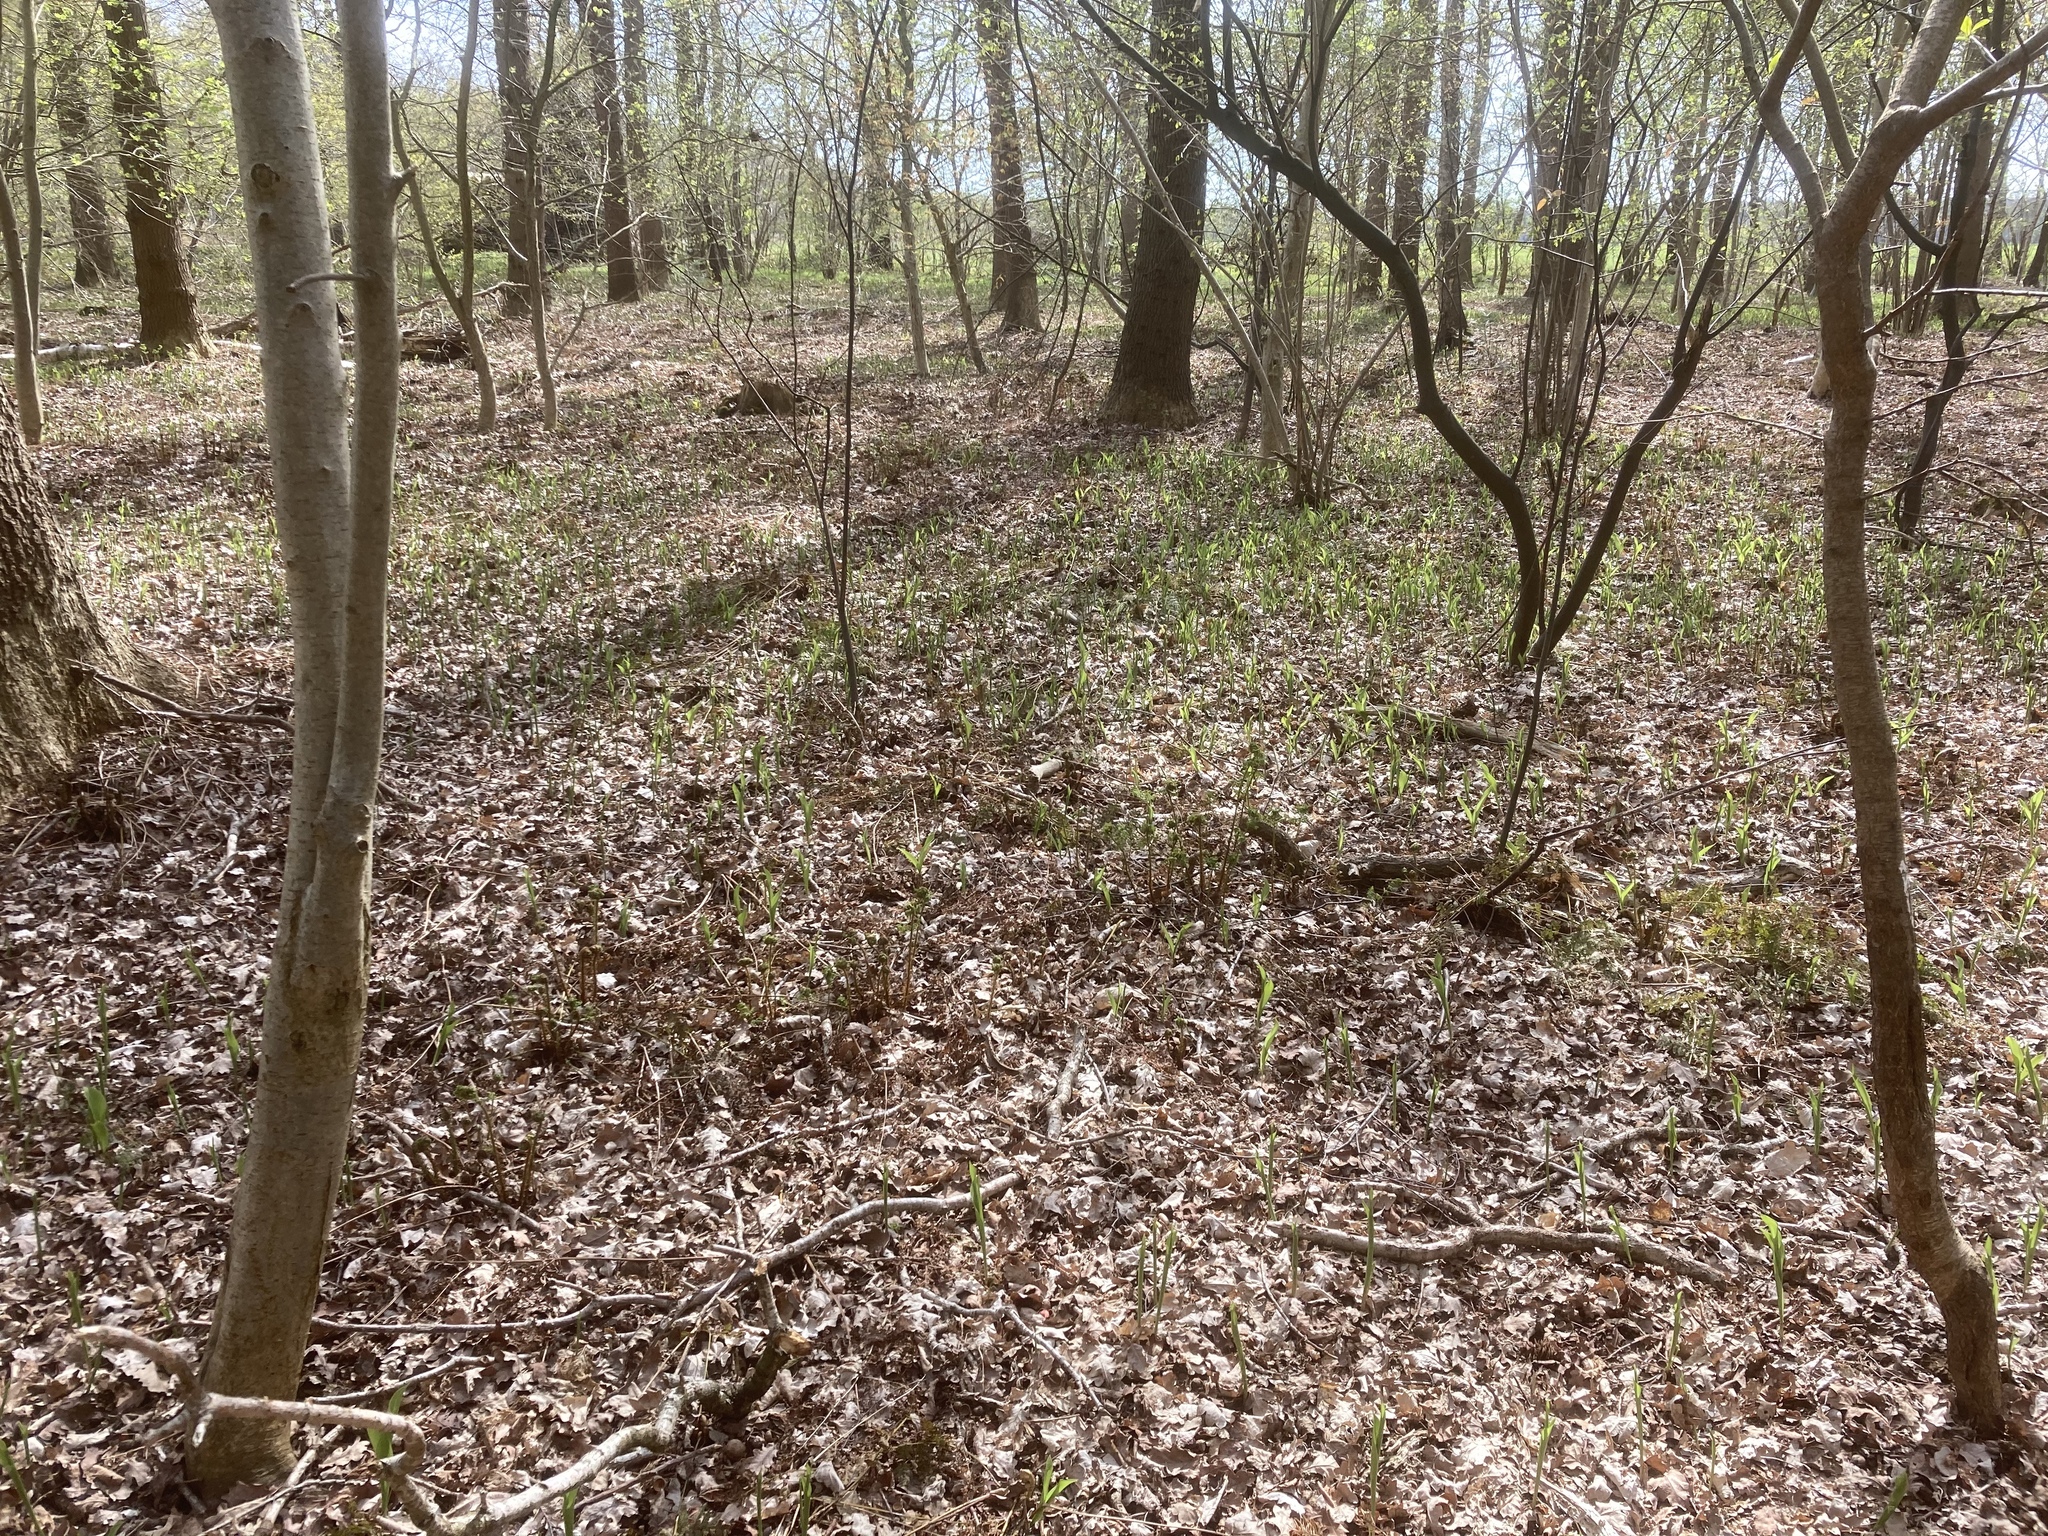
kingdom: Plantae
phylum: Tracheophyta
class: Liliopsida
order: Asparagales
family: Asparagaceae
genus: Convallaria
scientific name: Convallaria majalis
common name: Lily-of-the-valley
